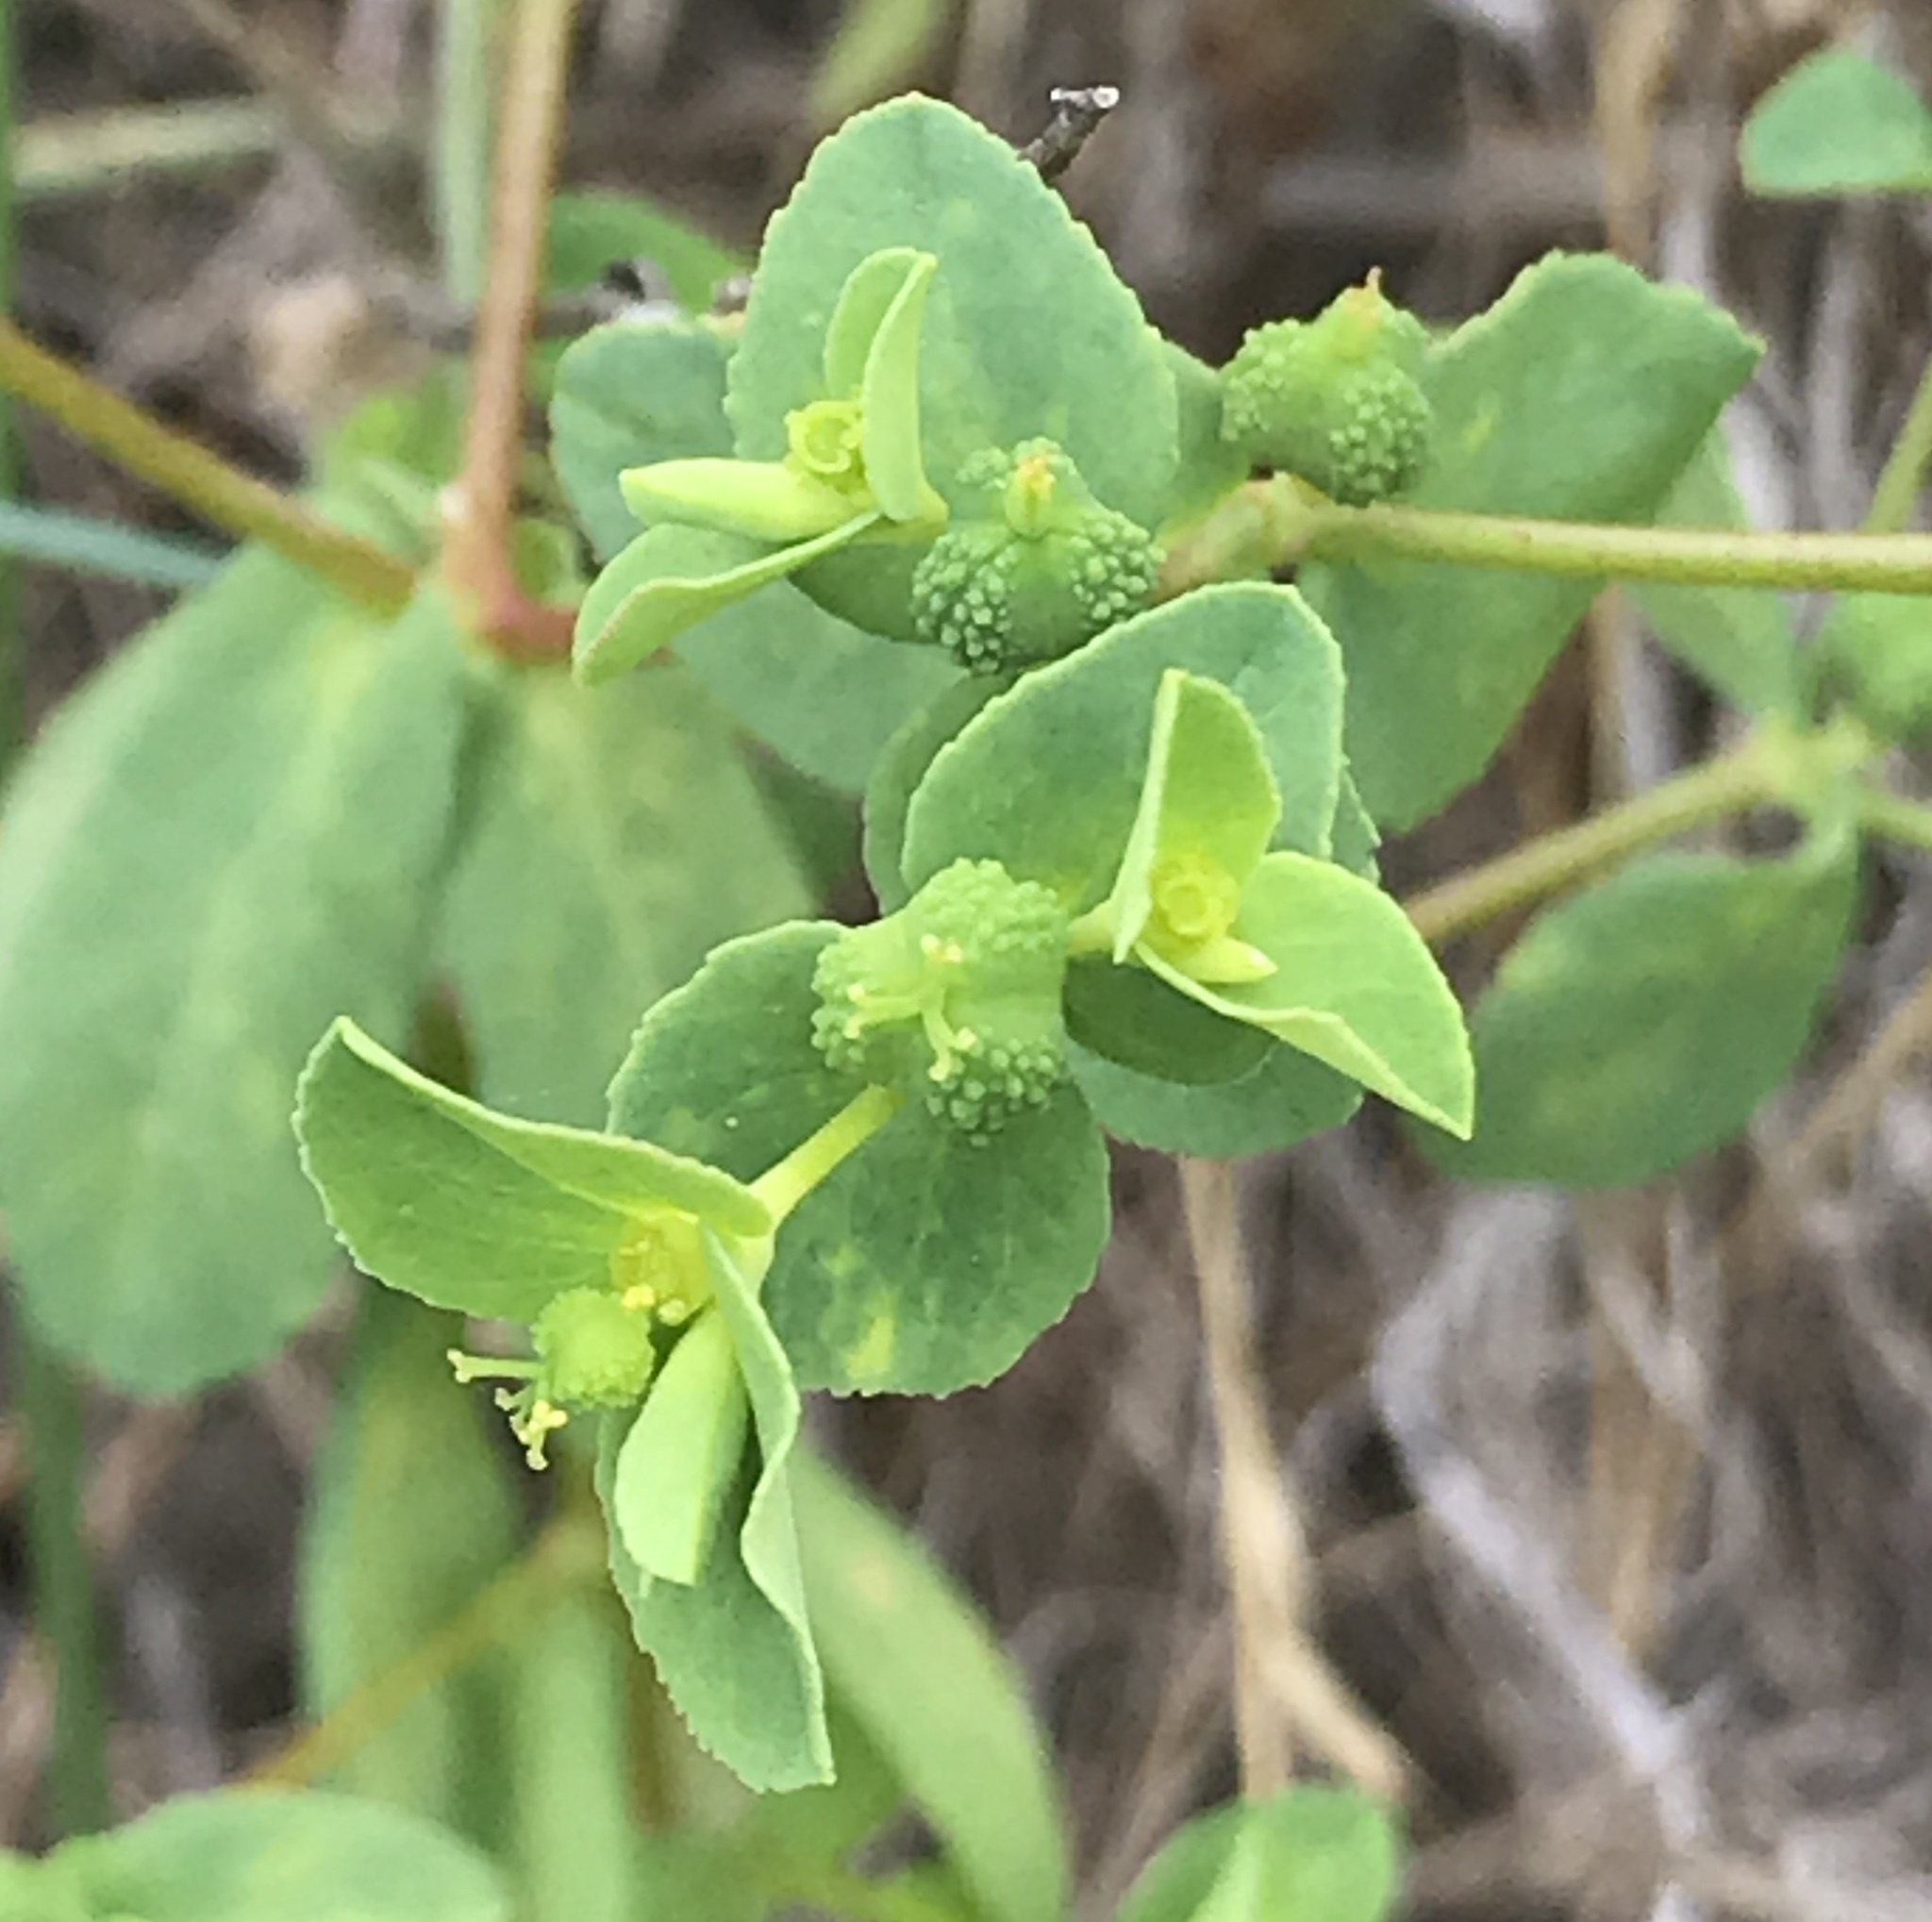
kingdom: Plantae
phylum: Tracheophyta
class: Magnoliopsida
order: Malpighiales
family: Euphorbiaceae
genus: Euphorbia
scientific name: Euphorbia spathulata
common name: Blunt spurge
